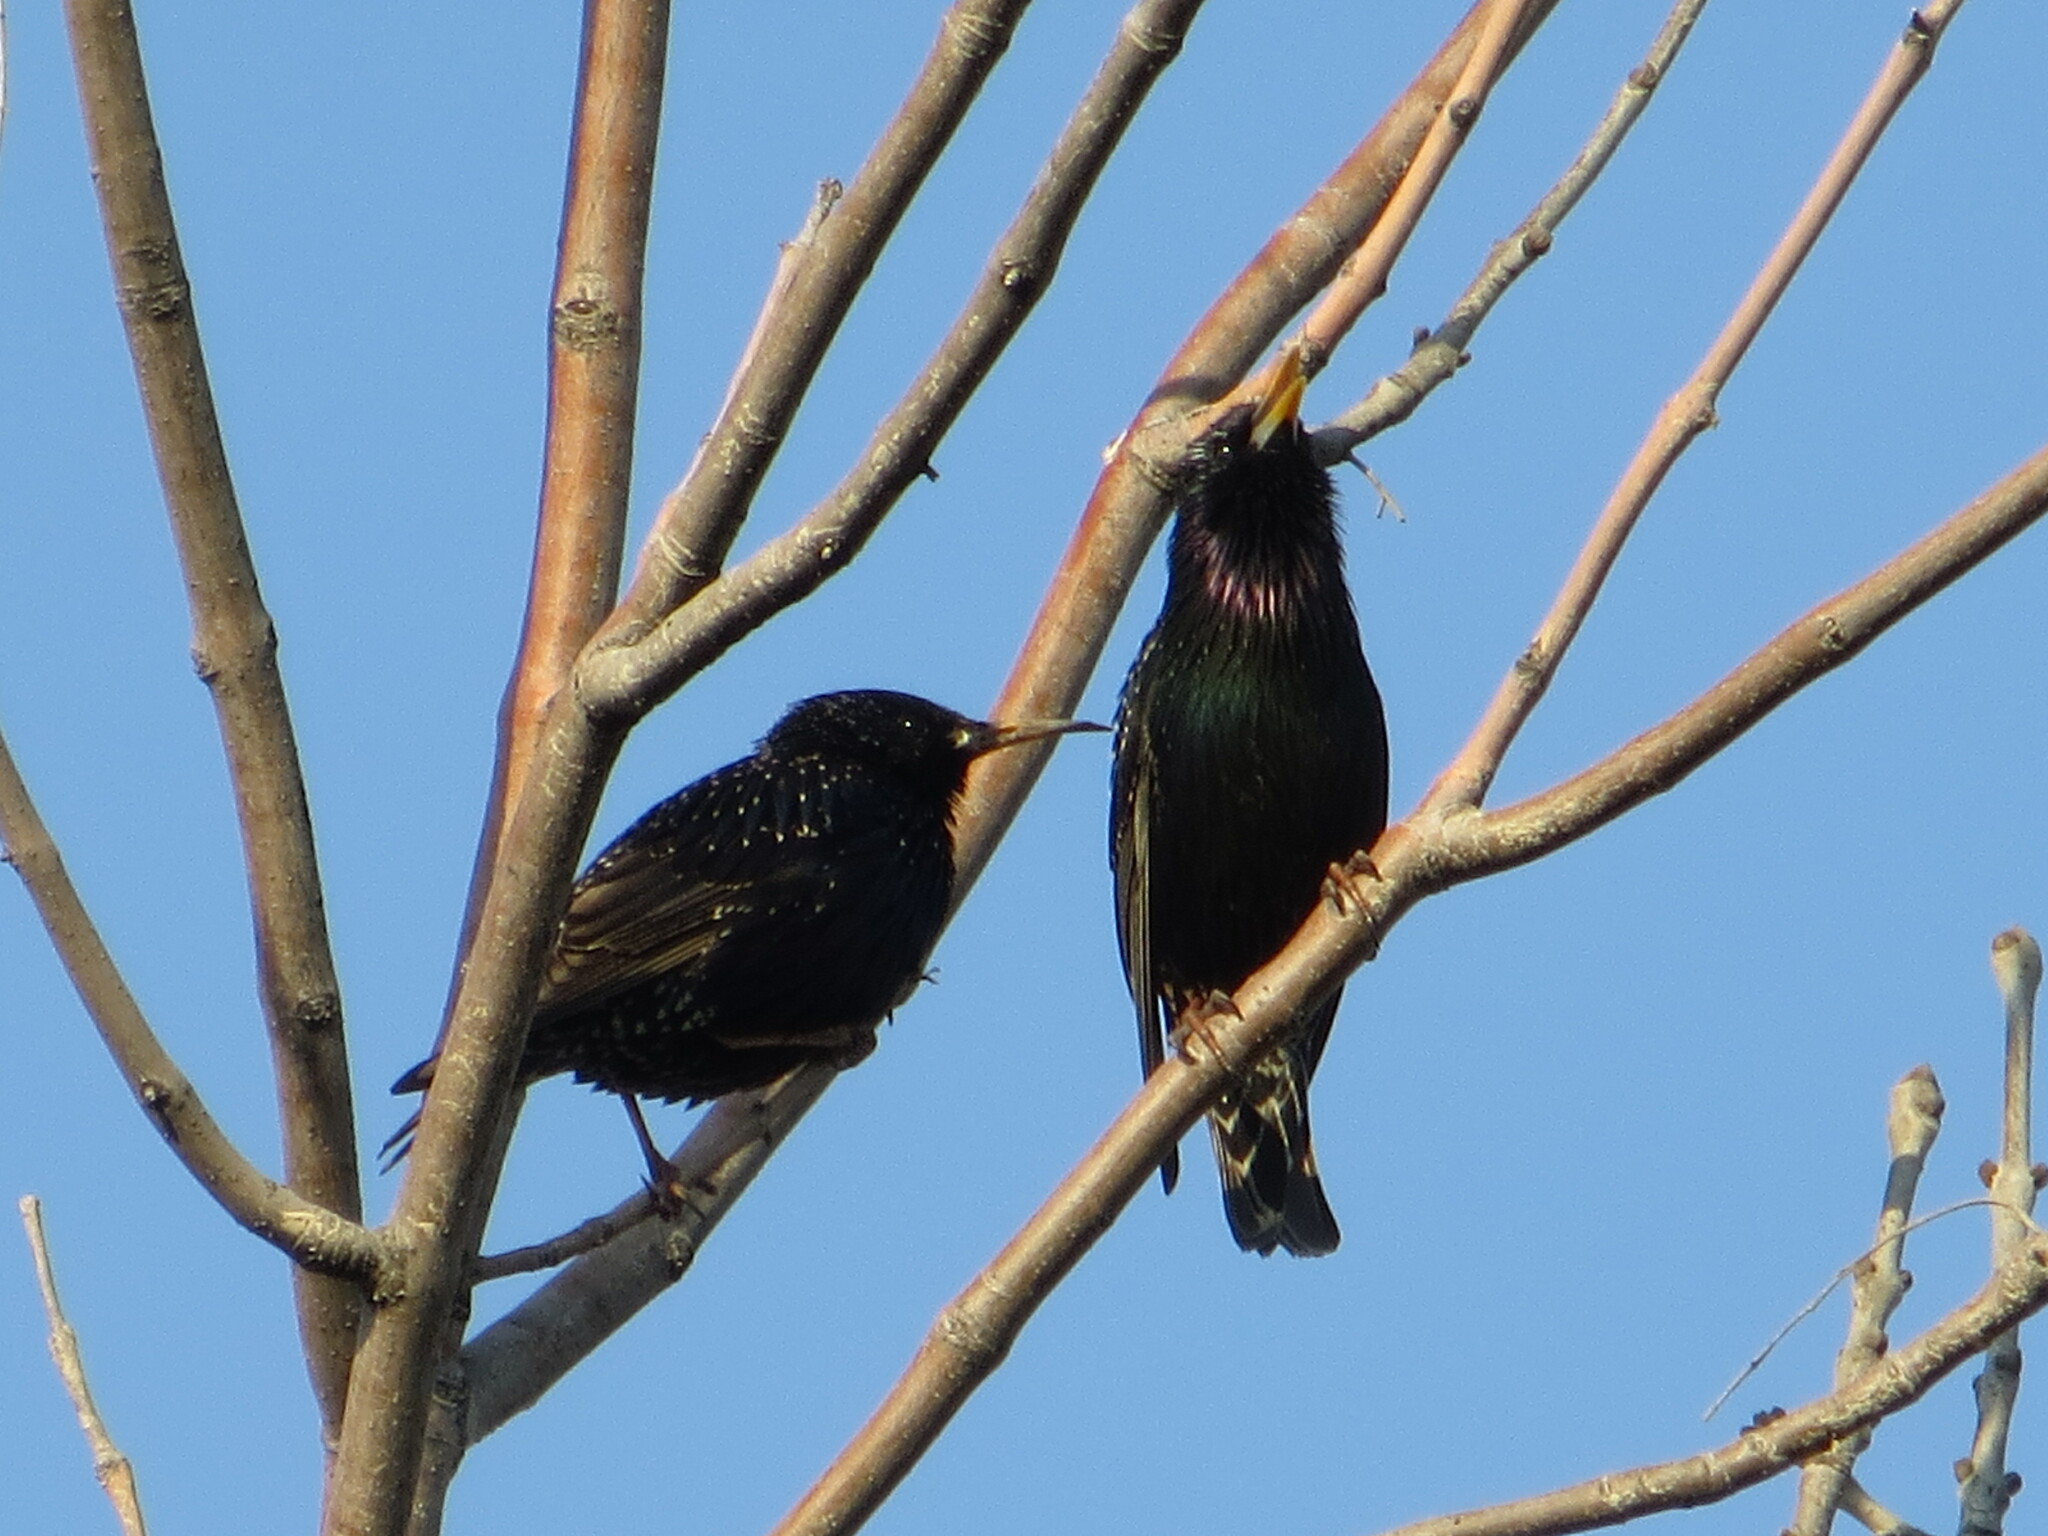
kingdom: Animalia
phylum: Chordata
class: Aves
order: Passeriformes
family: Sturnidae
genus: Sturnus
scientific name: Sturnus vulgaris
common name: Common starling
